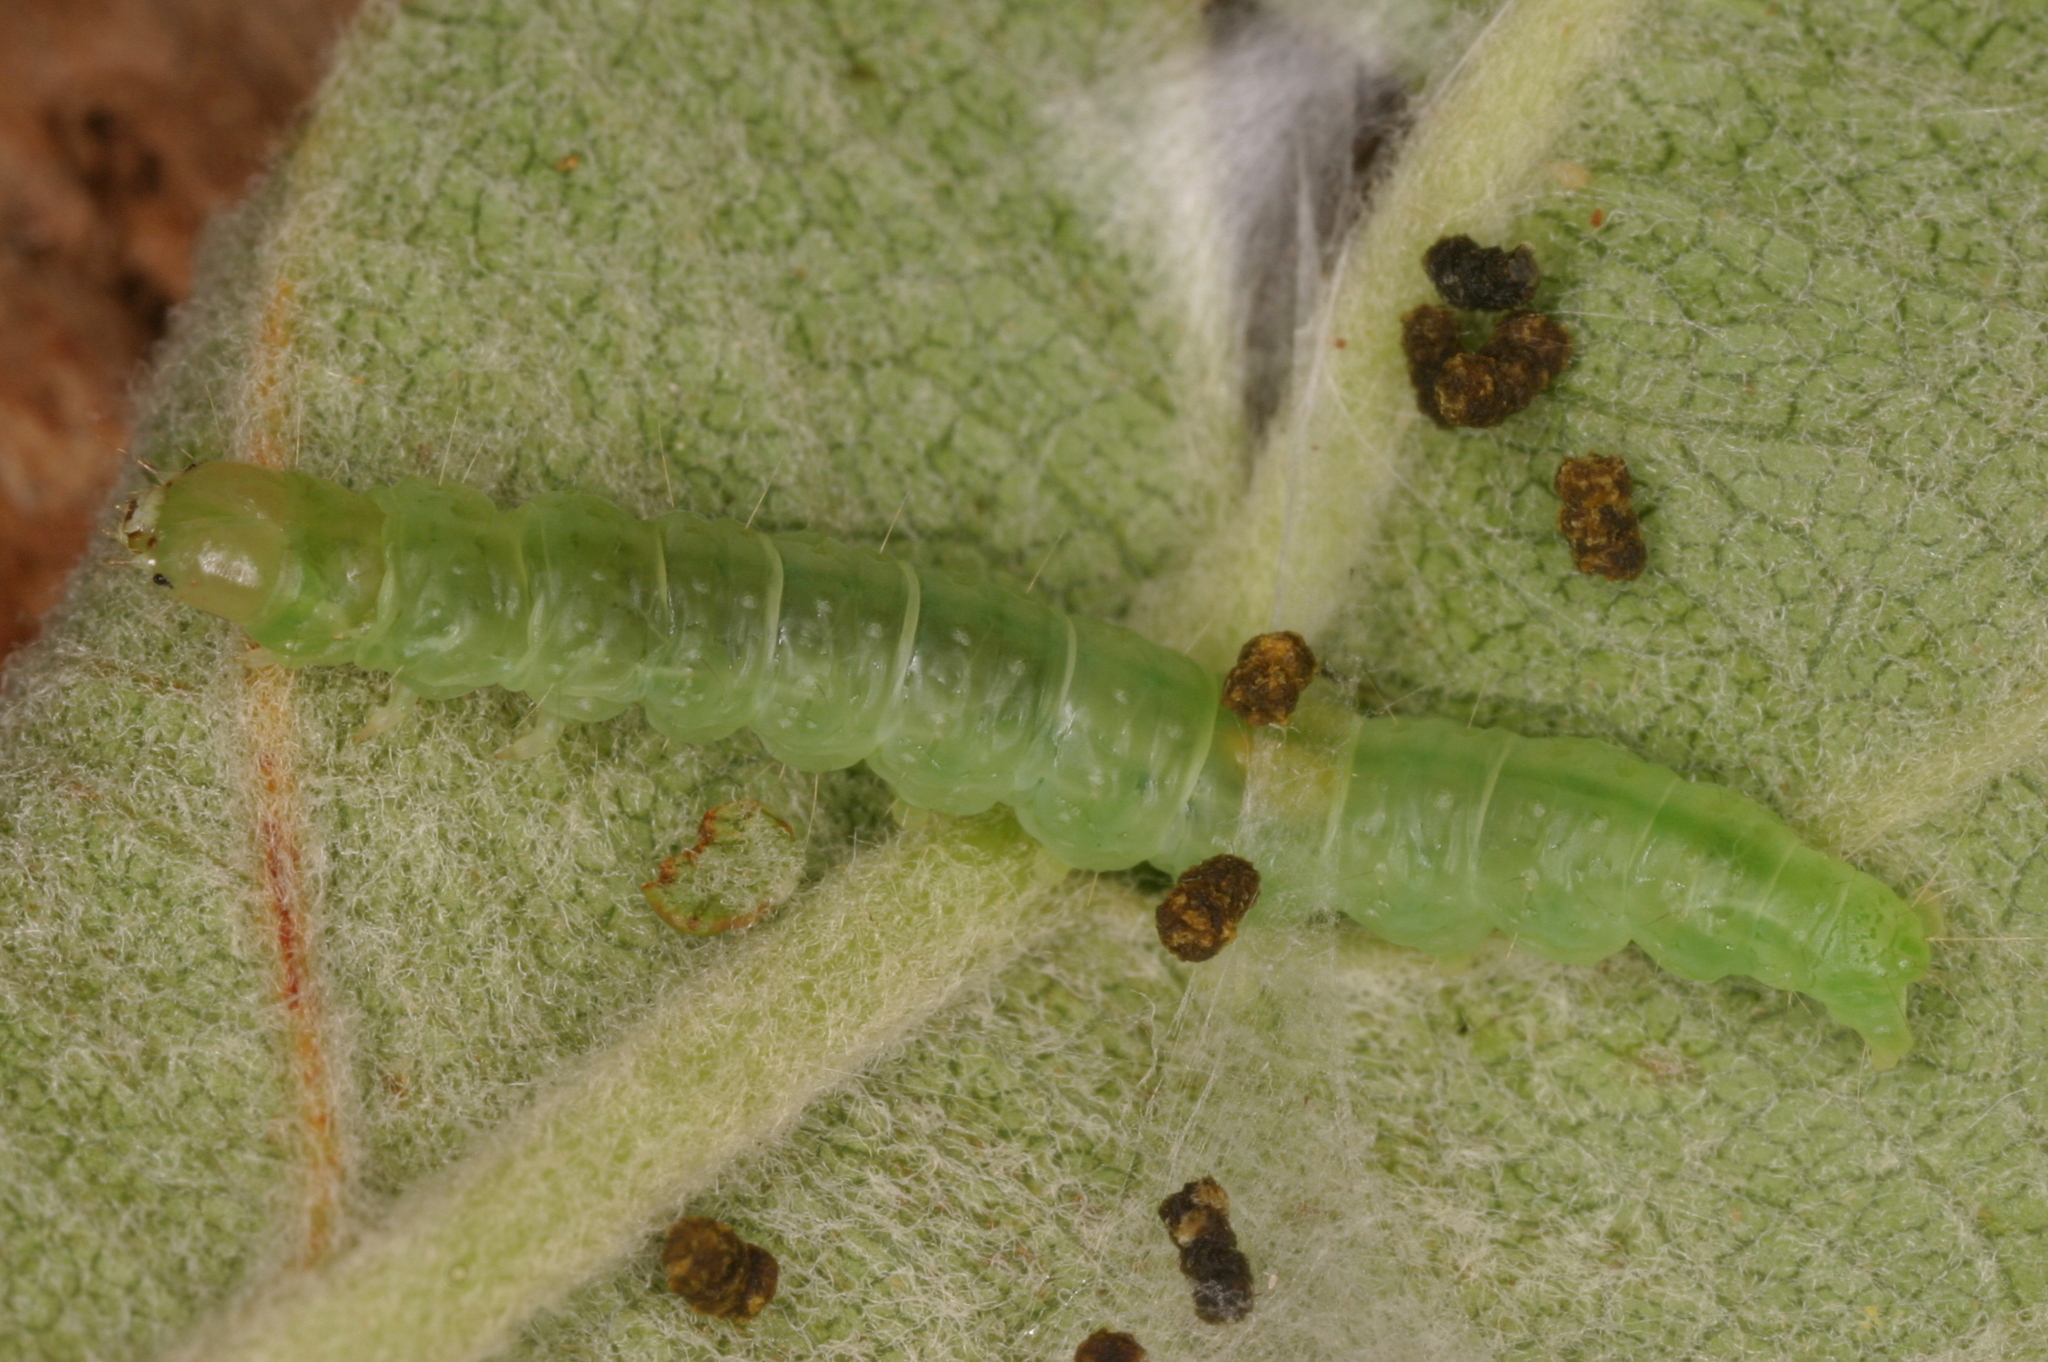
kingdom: Animalia
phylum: Arthropoda
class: Insecta
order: Lepidoptera
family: Tortricidae
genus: Pandemis
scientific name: Pandemis heparana
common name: Dark fruit-tree tortrix
